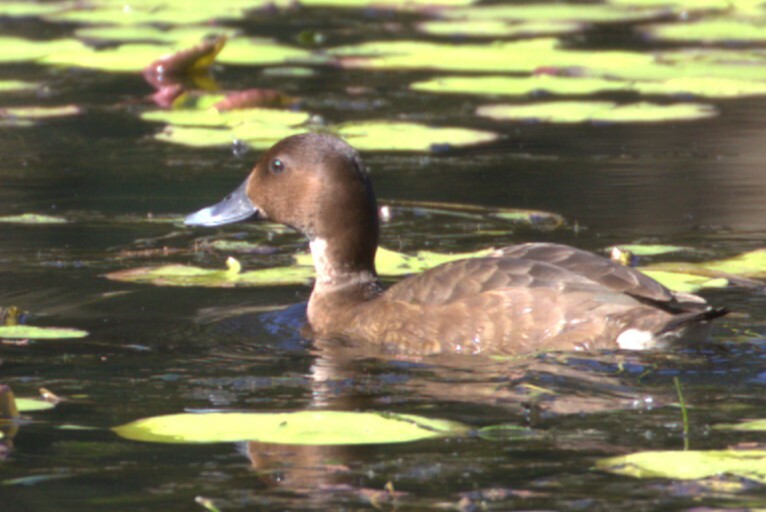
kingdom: Animalia
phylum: Chordata
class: Aves
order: Anseriformes
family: Anatidae
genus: Aythya
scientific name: Aythya australis
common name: Hardhead
